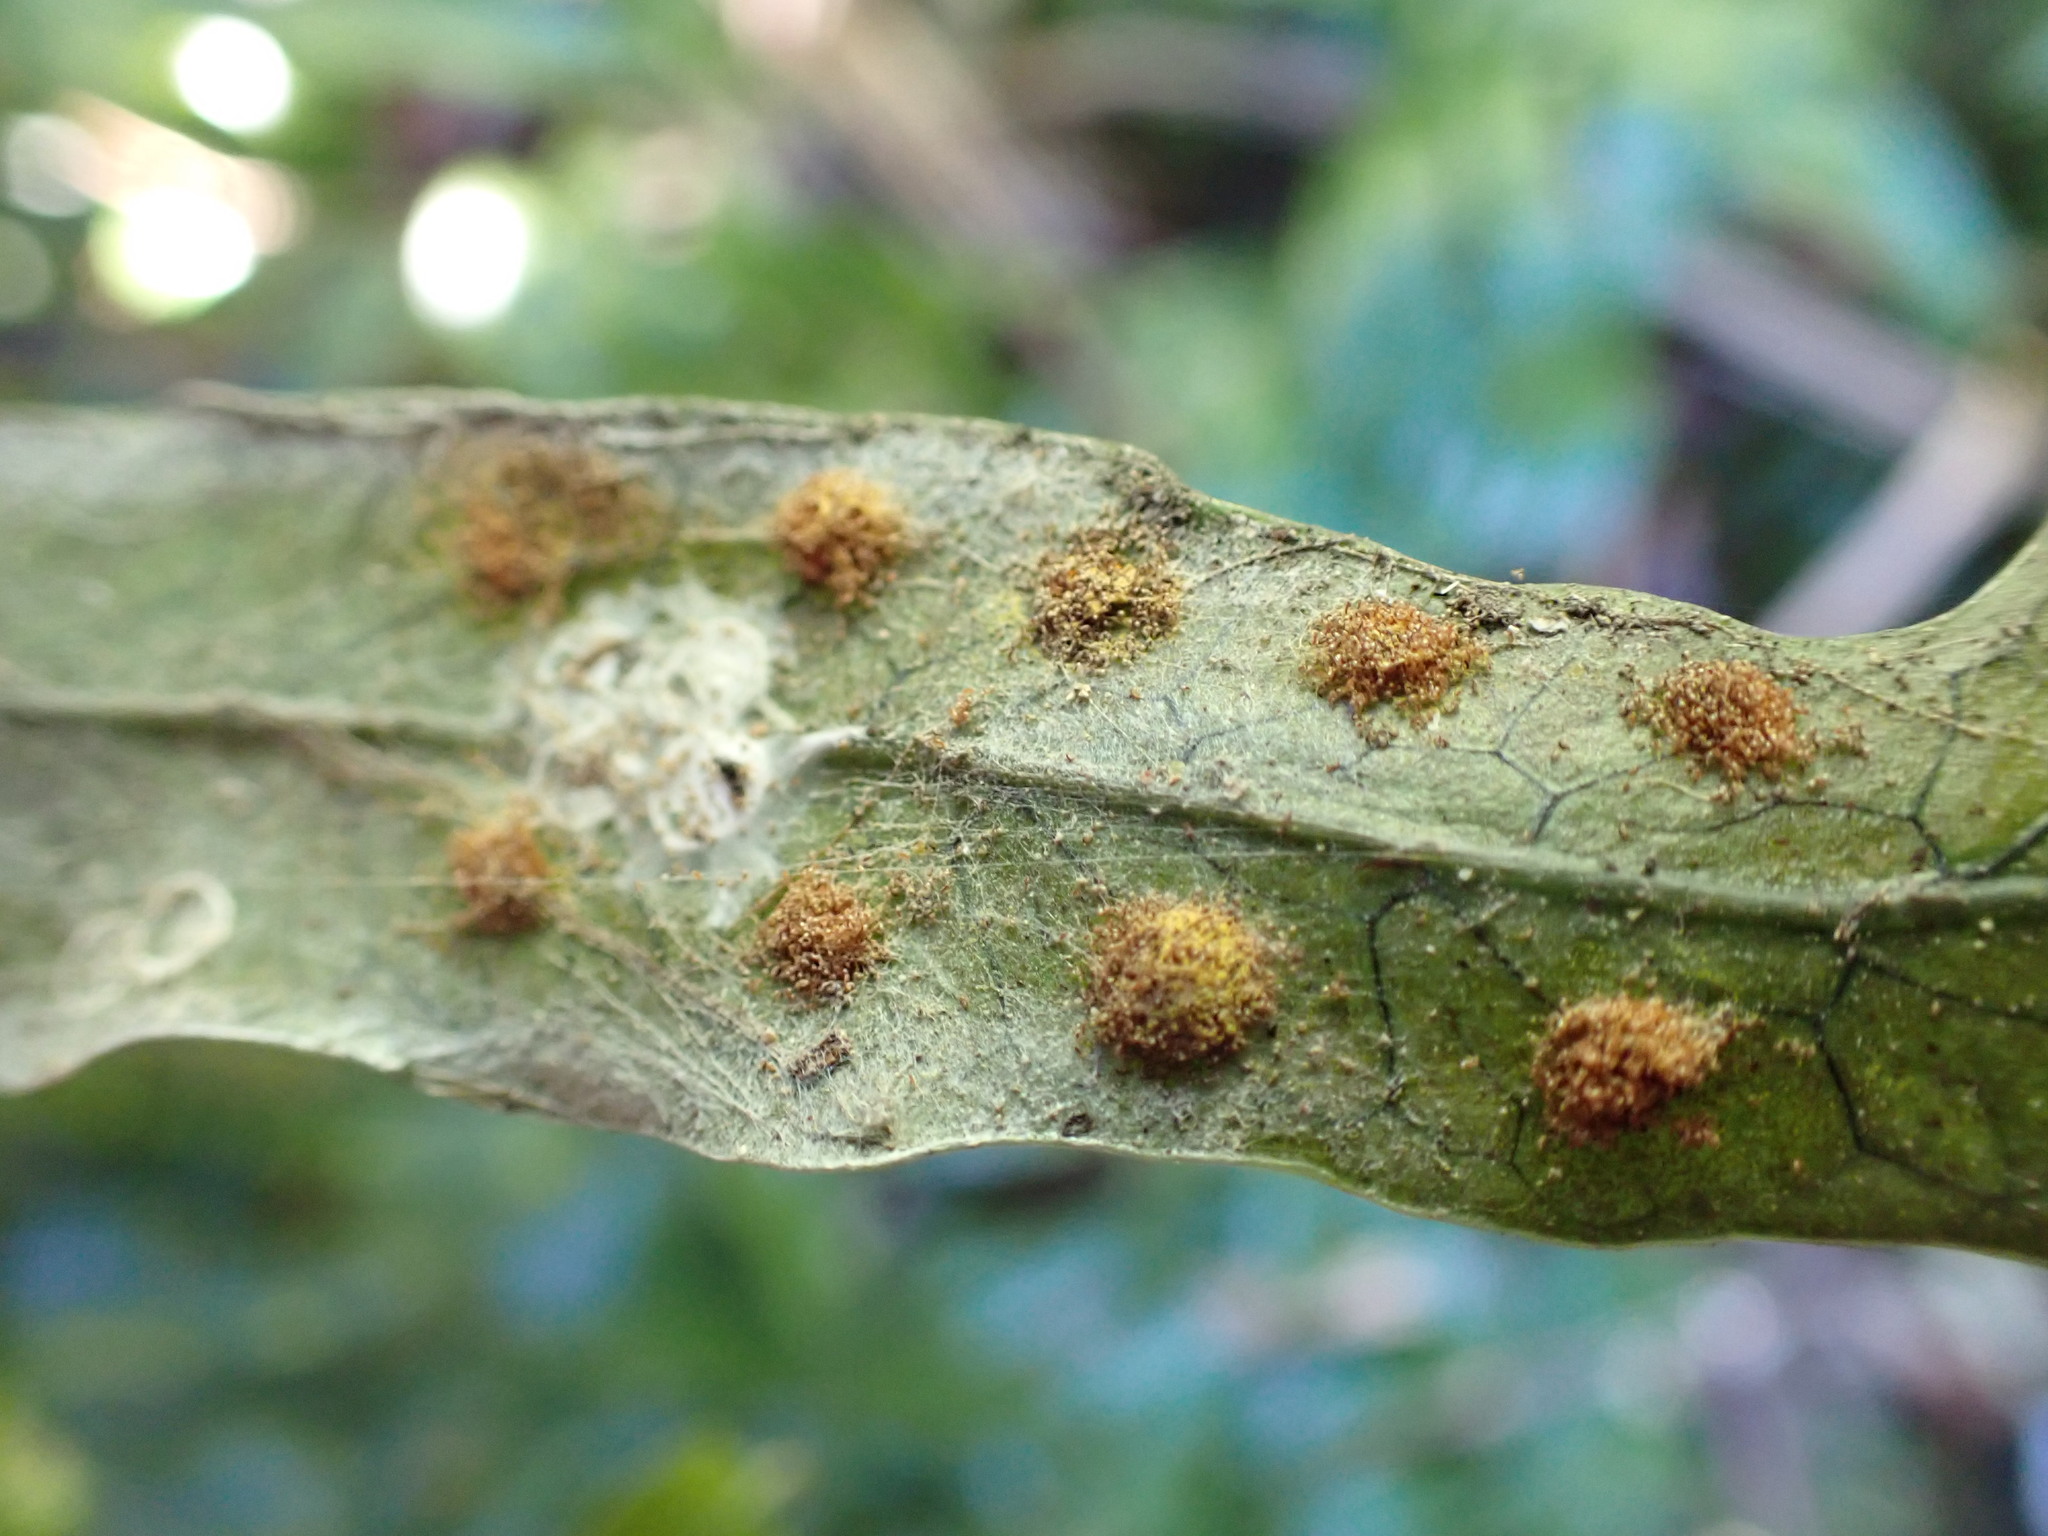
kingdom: Plantae
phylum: Tracheophyta
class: Polypodiopsida
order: Polypodiales
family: Polypodiaceae
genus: Lecanopteris
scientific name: Lecanopteris pustulata
